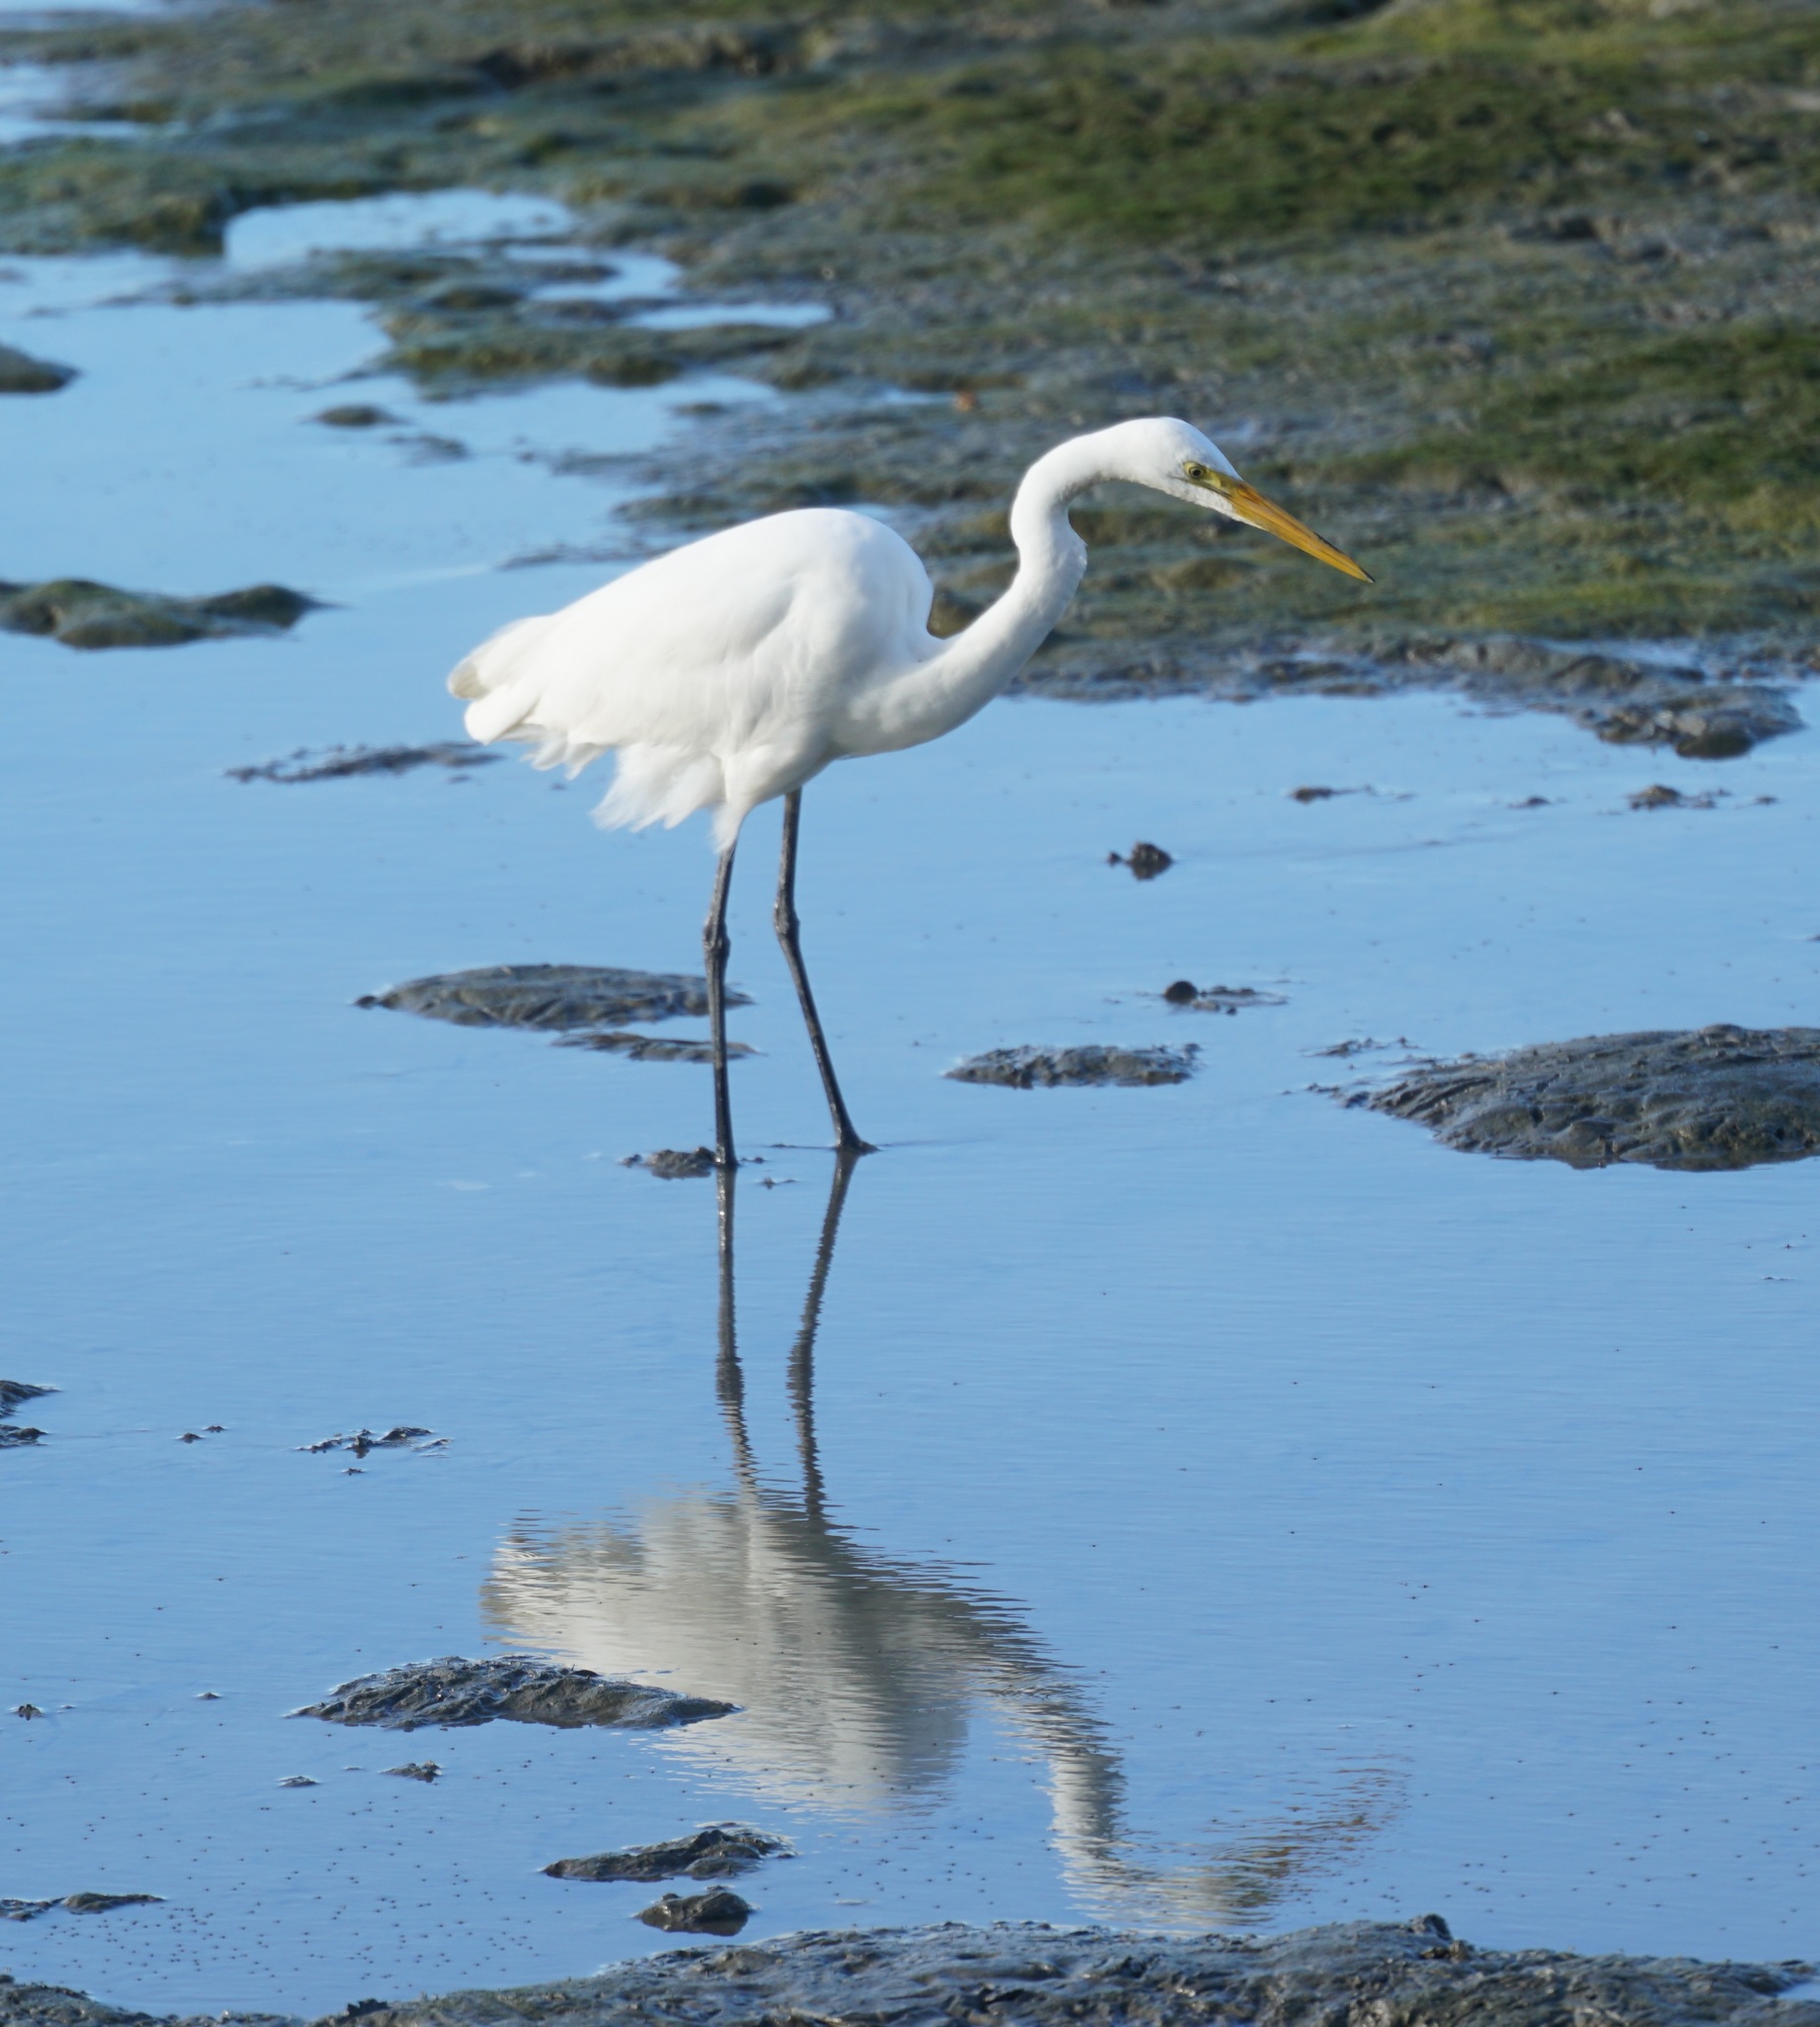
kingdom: Animalia
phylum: Chordata
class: Aves
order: Pelecaniformes
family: Ardeidae
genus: Ardea
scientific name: Ardea modesta
